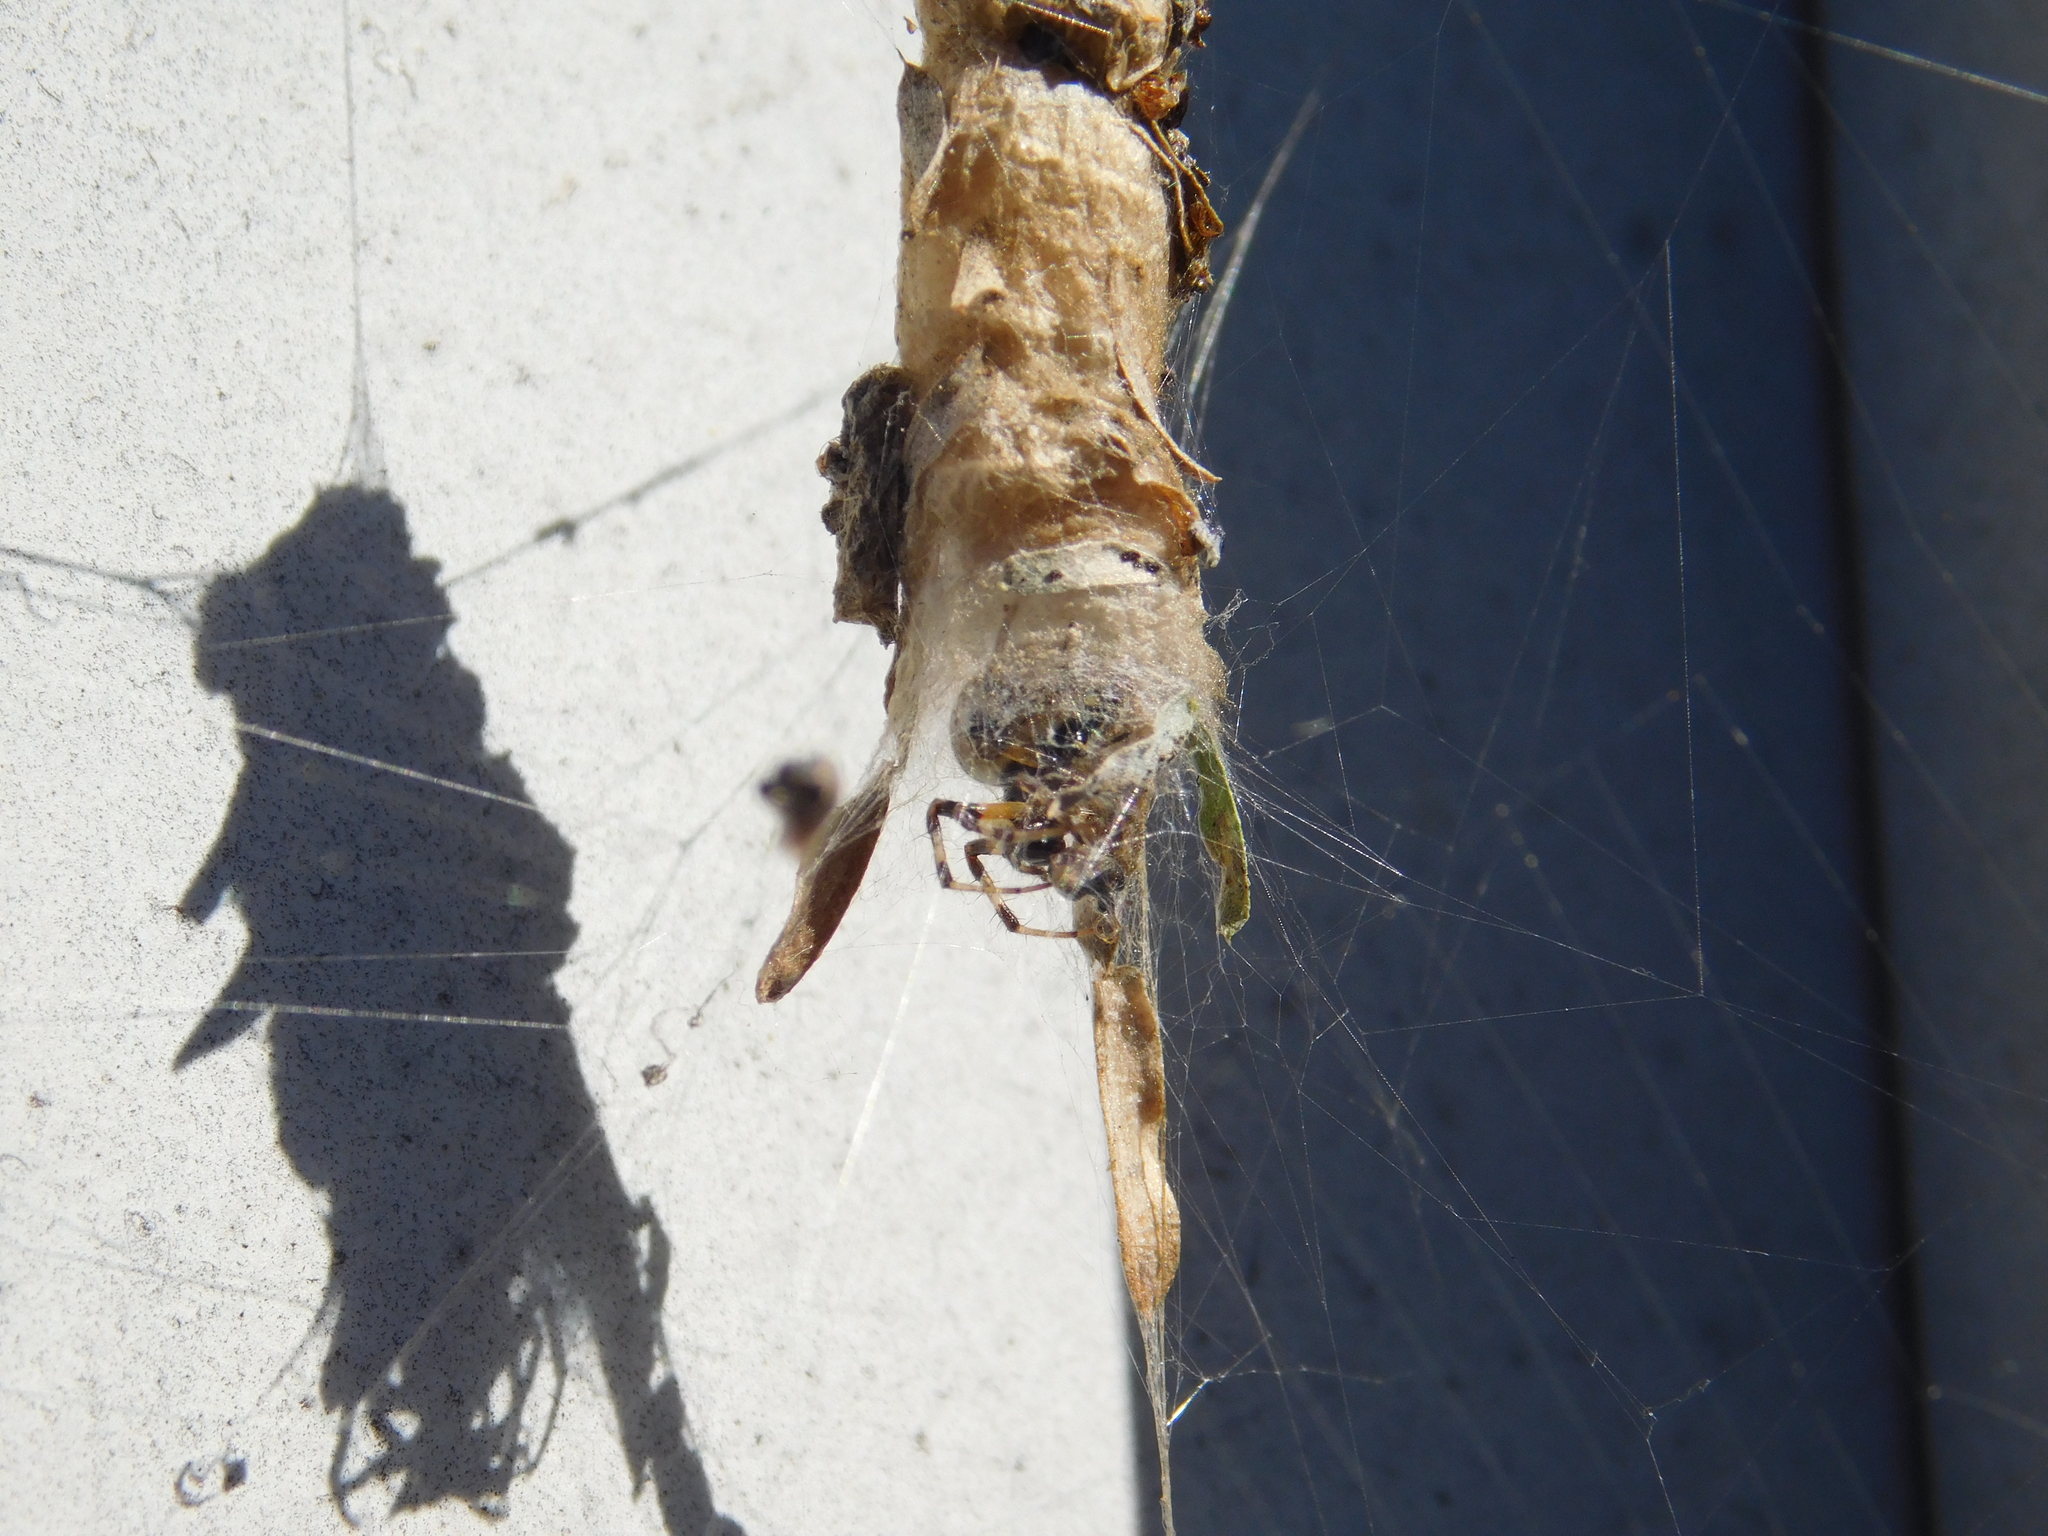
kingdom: Animalia
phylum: Arthropoda
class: Arachnida
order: Araneae
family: Araneidae
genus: Metepeira
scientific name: Metepeira
